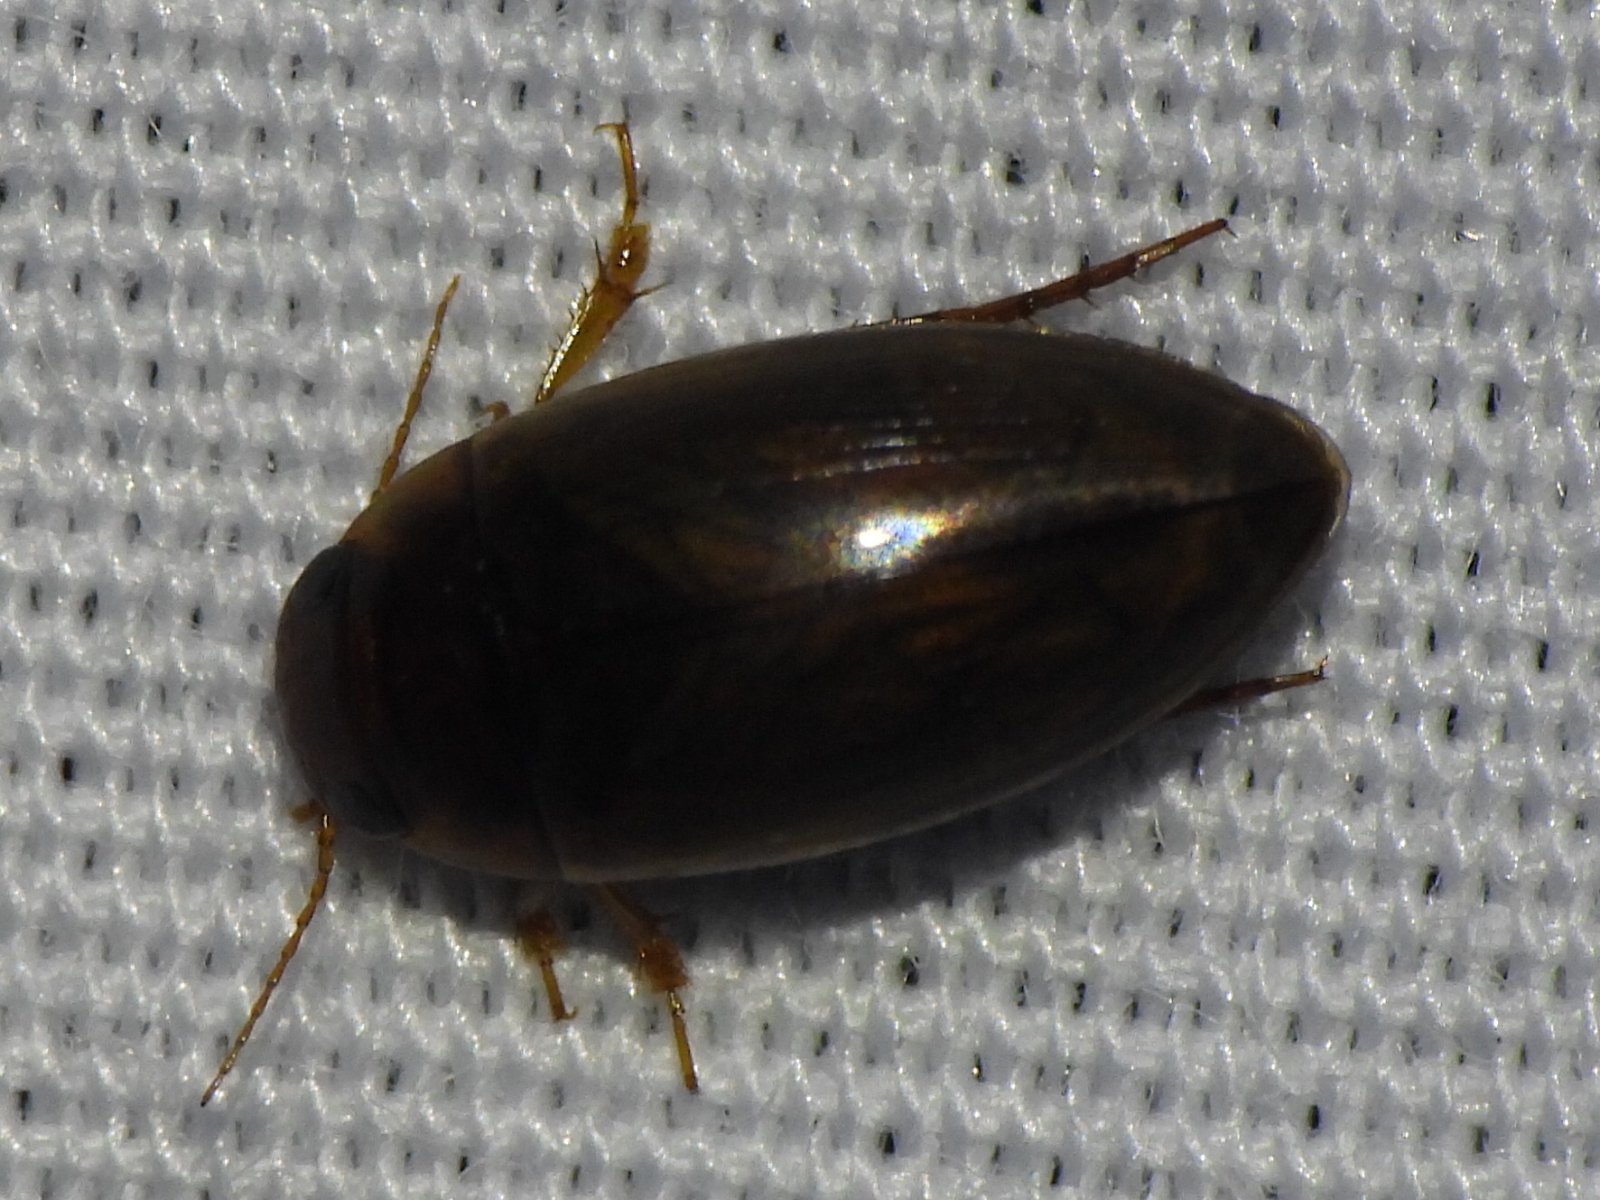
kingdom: Animalia
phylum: Arthropoda
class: Insecta
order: Coleoptera
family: Dytiscidae
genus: Copelatus
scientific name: Copelatus chevrolati
